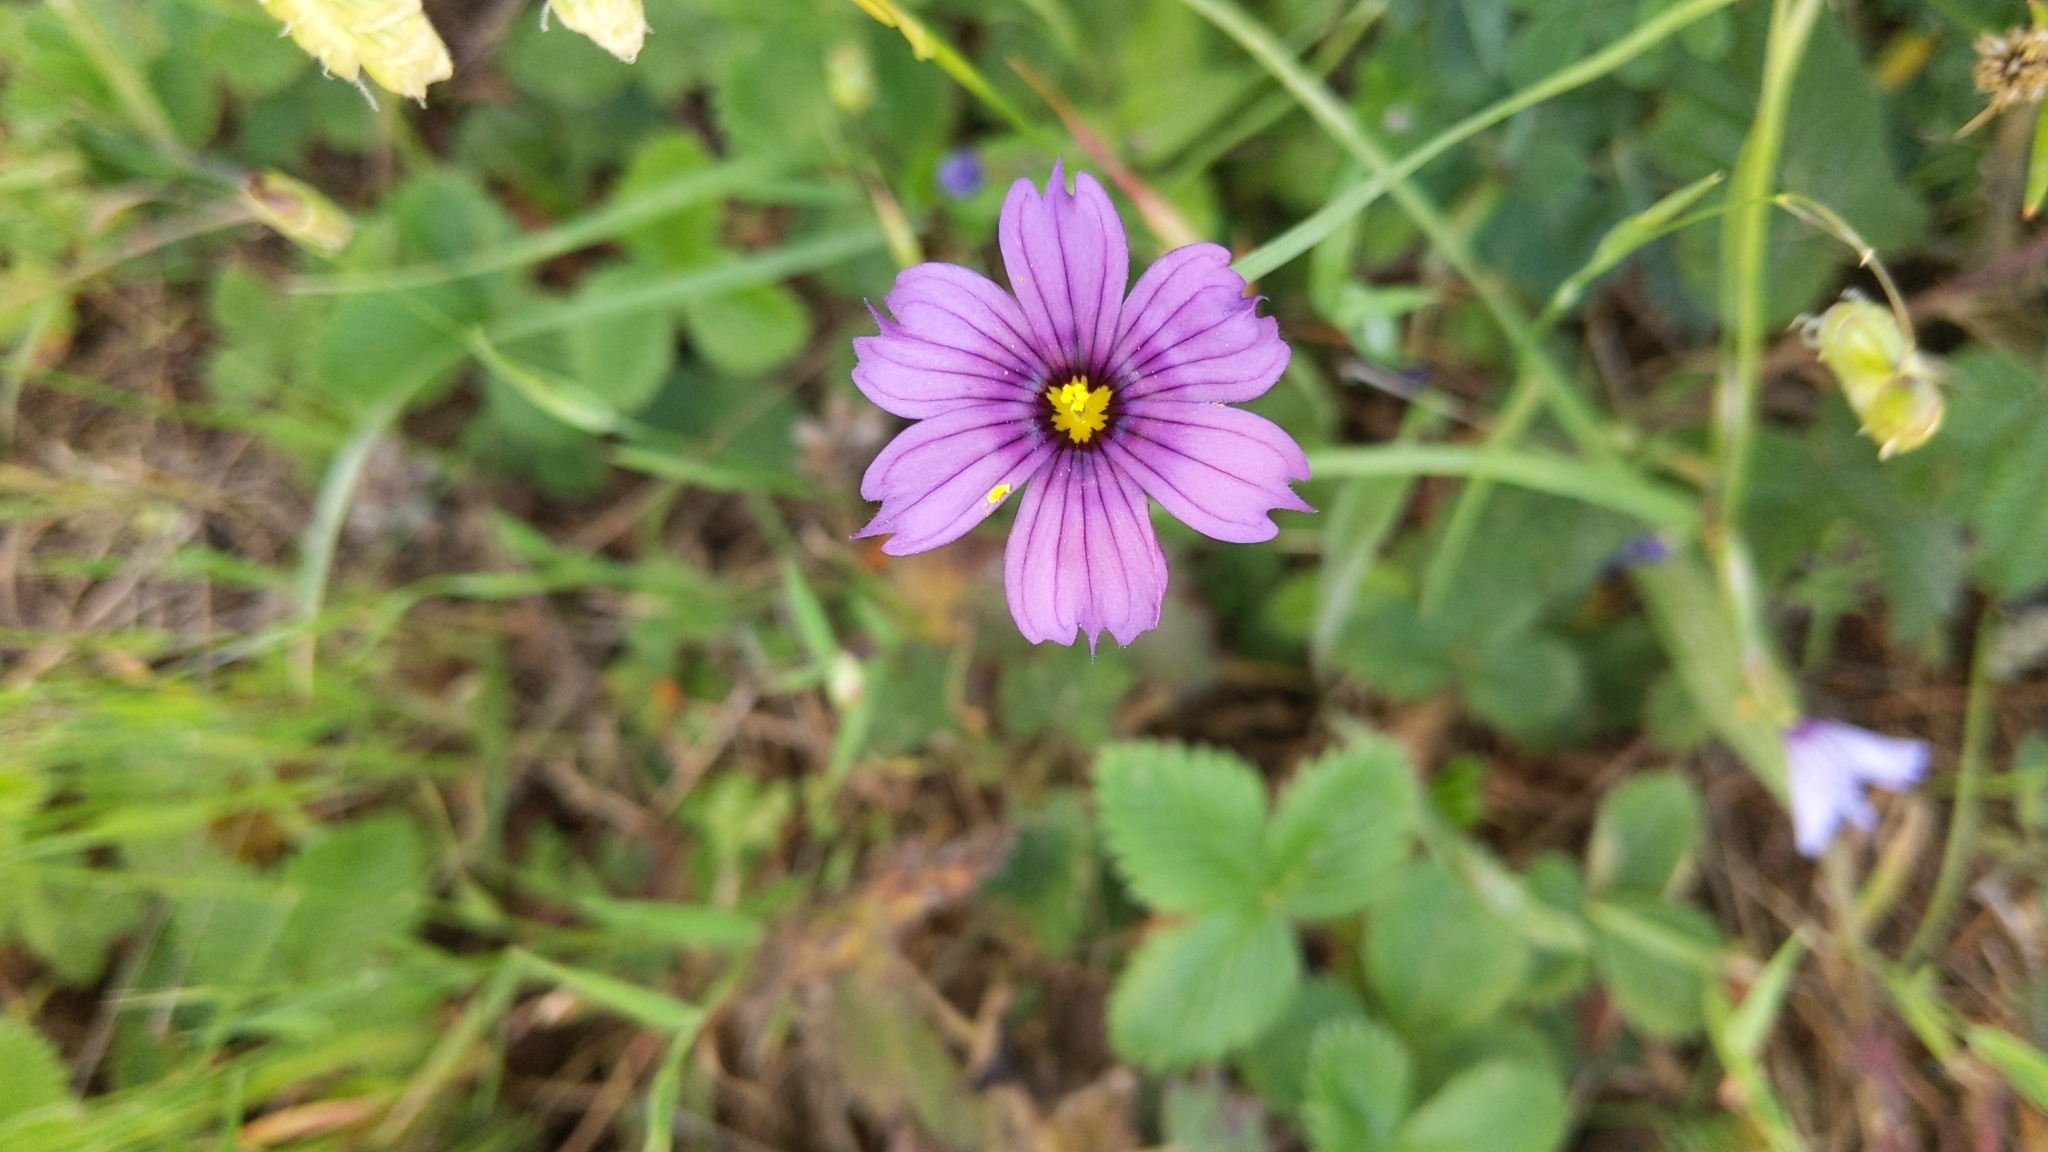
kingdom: Plantae
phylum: Tracheophyta
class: Liliopsida
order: Asparagales
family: Iridaceae
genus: Sisyrinchium
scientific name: Sisyrinchium bellum
